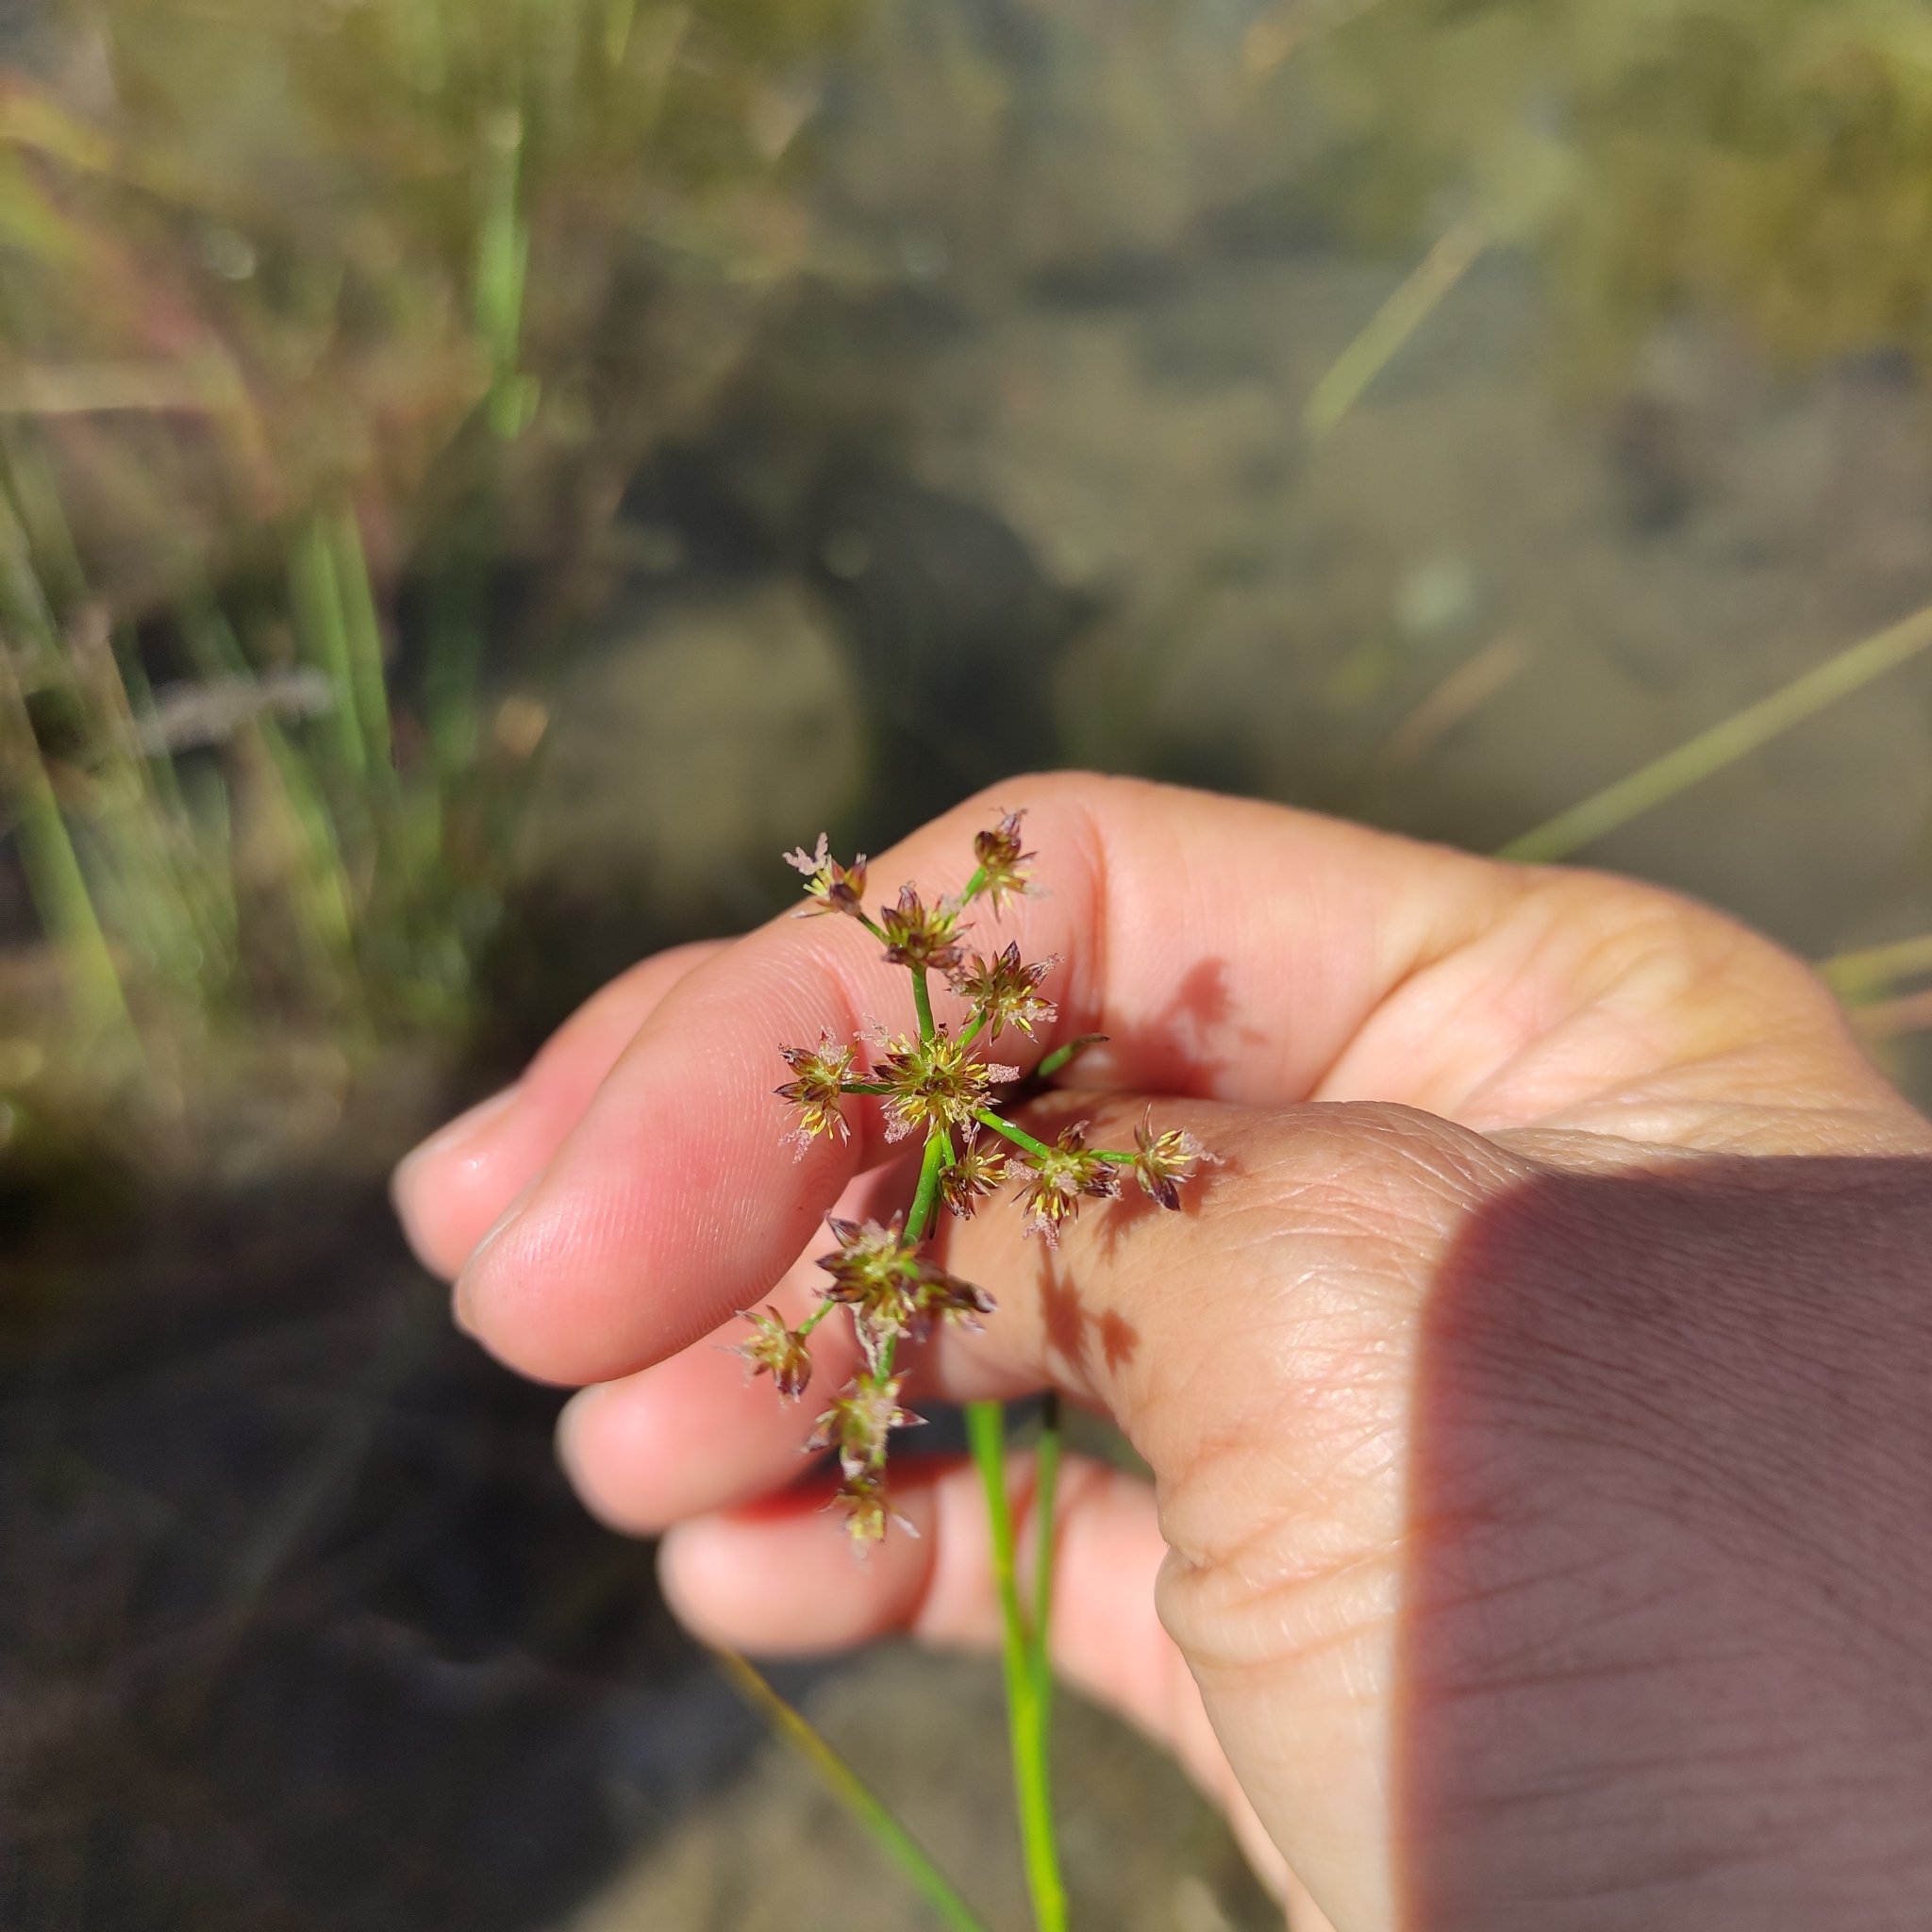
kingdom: Plantae
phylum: Tracheophyta
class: Liliopsida
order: Poales
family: Juncaceae
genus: Juncus
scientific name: Juncus articulatus
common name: Jointed rush
